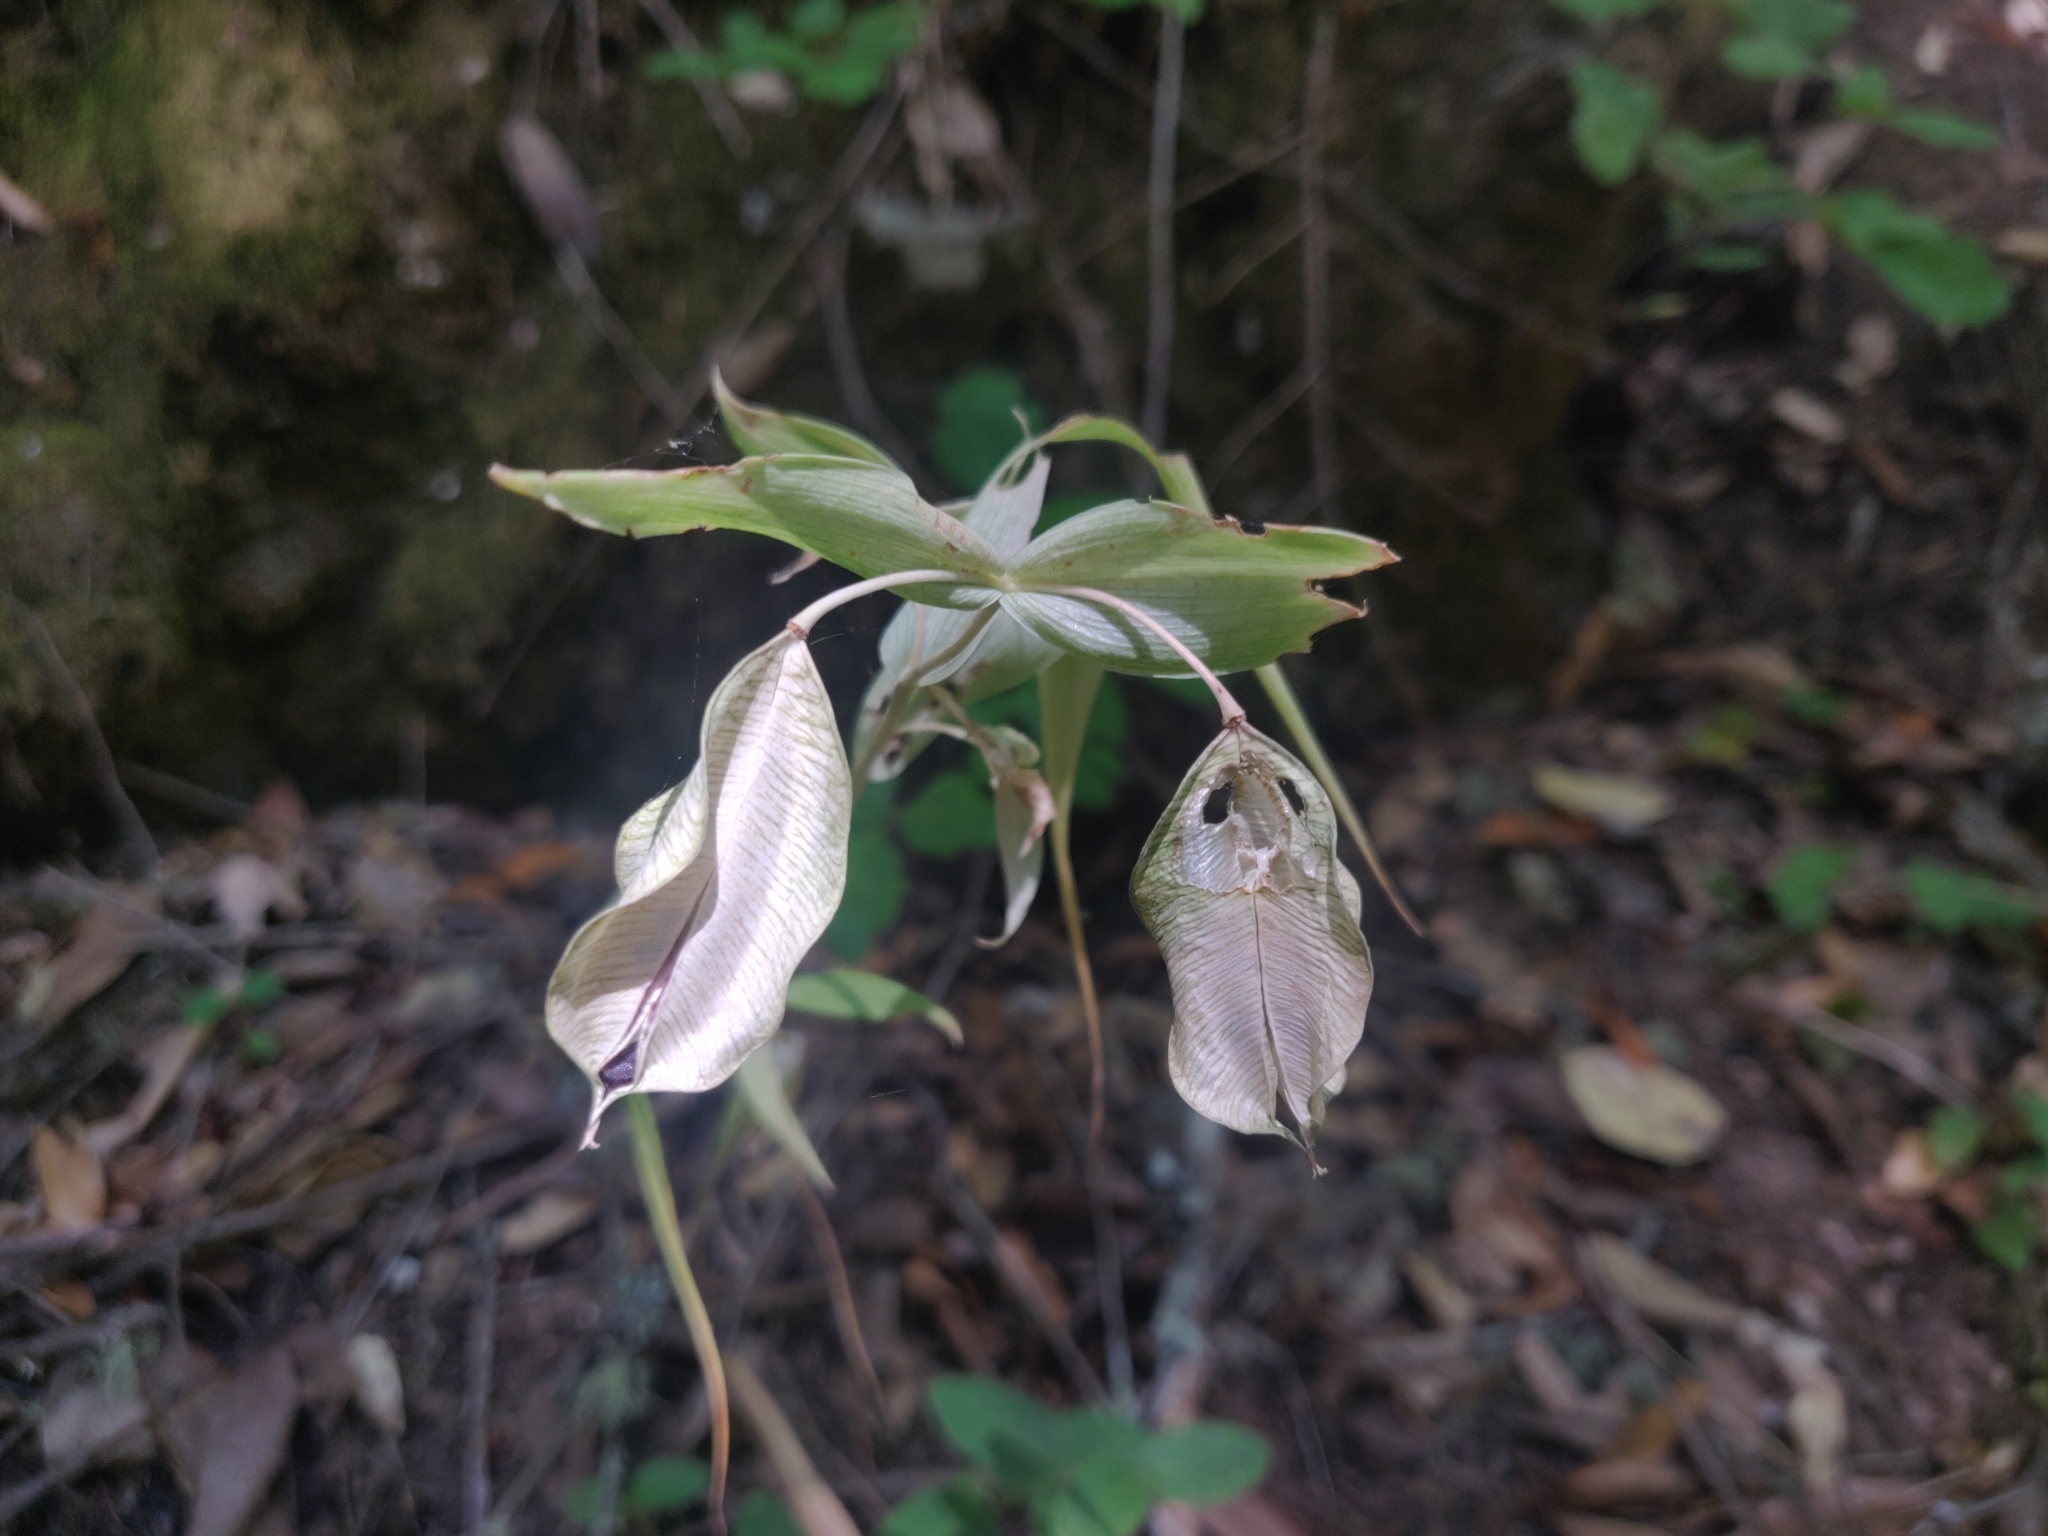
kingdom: Plantae
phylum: Tracheophyta
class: Liliopsida
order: Liliales
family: Liliaceae
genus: Calochortus
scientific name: Calochortus albus
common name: Fairy-lantern
